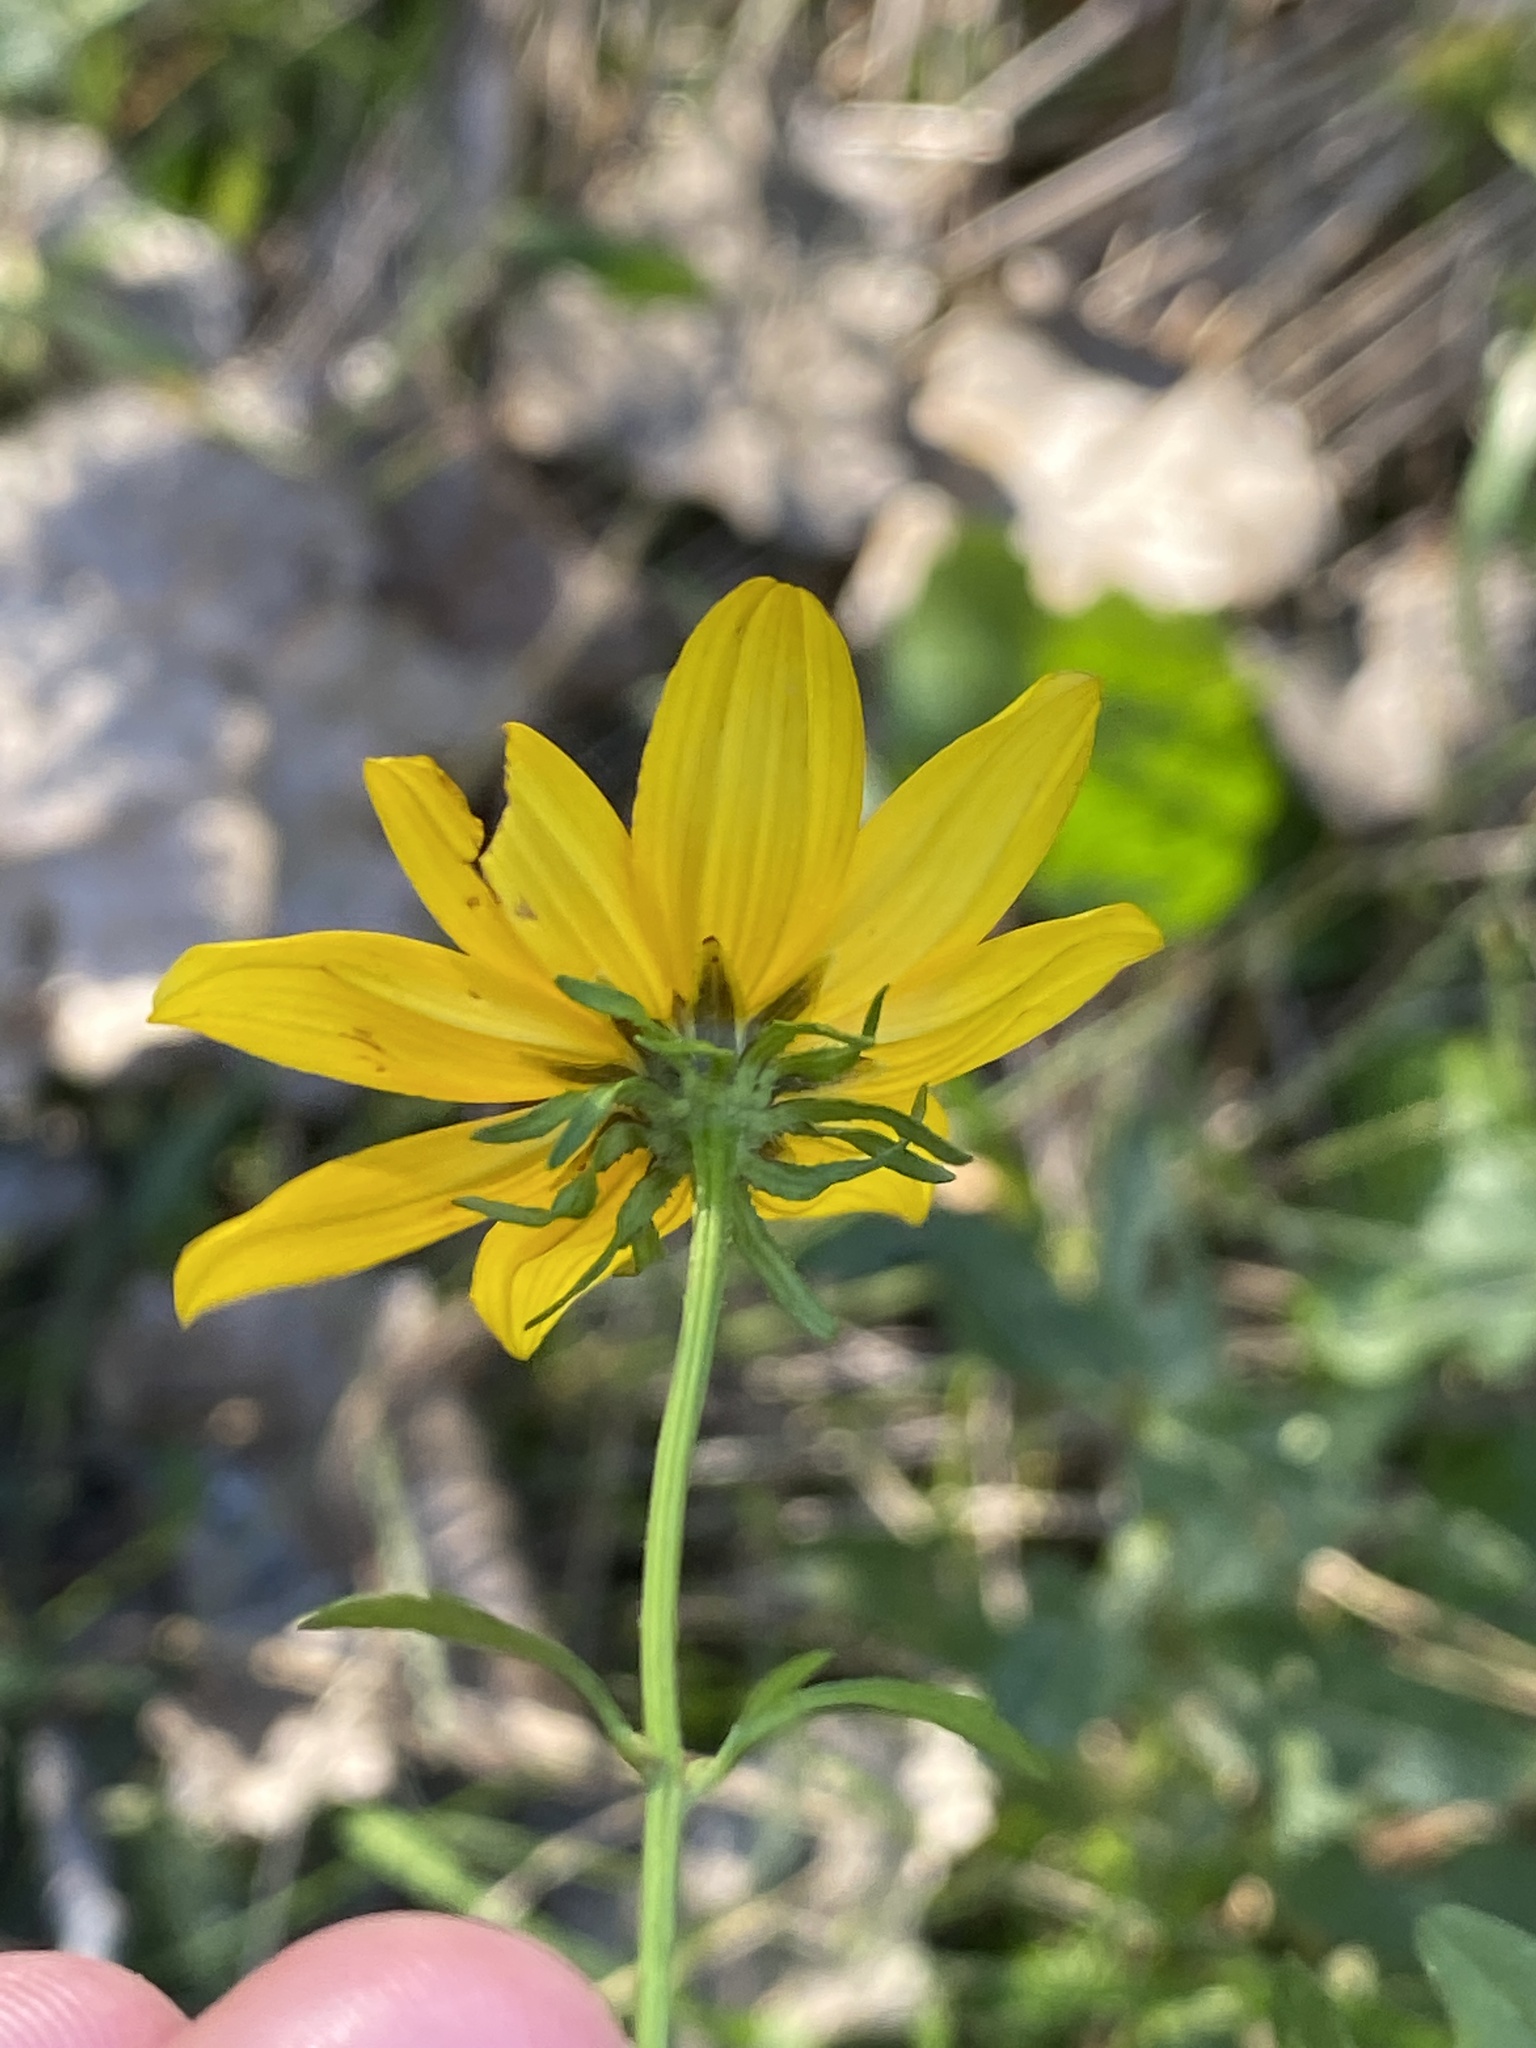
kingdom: Plantae
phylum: Tracheophyta
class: Magnoliopsida
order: Asterales
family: Asteraceae
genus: Bidens
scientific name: Bidens polylepis
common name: Awnless beggarticks
